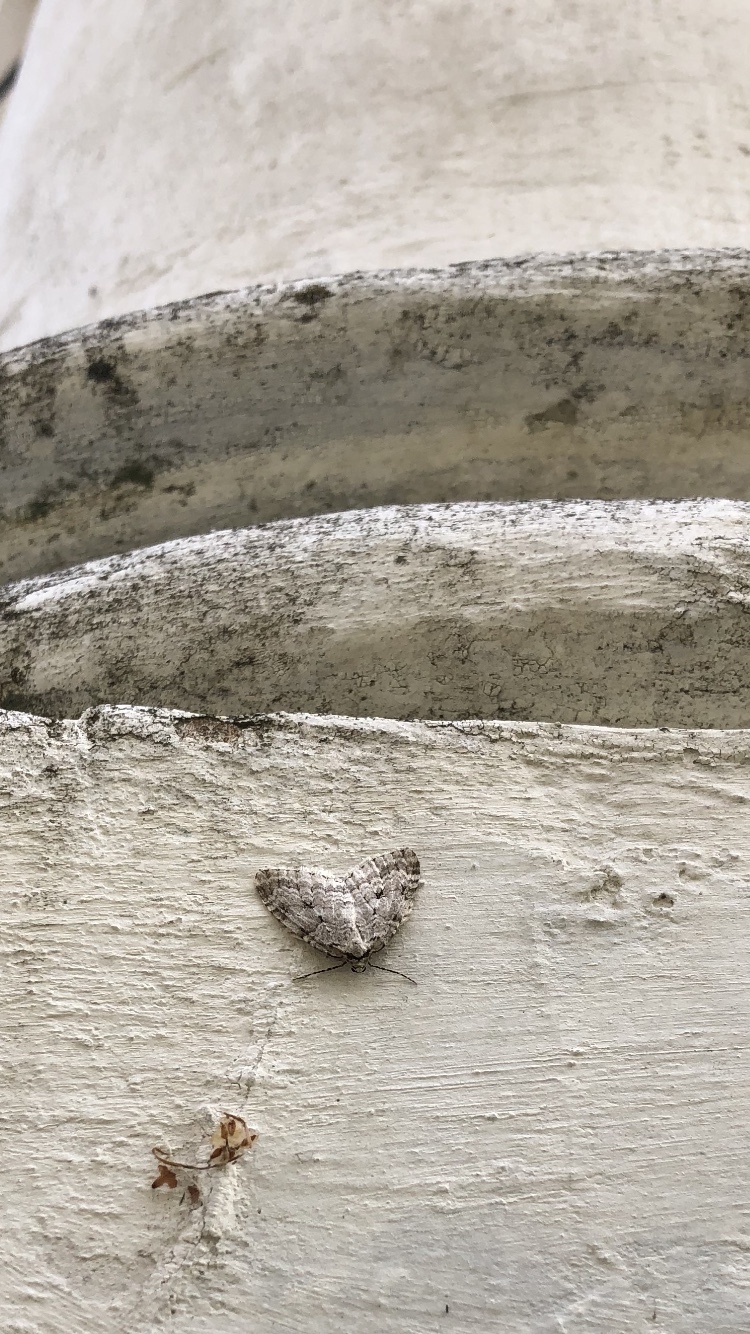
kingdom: Animalia
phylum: Arthropoda
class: Insecta
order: Lepidoptera
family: Geometridae
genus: Epirrita
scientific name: Epirrita autumnata
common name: Autumnal moth
